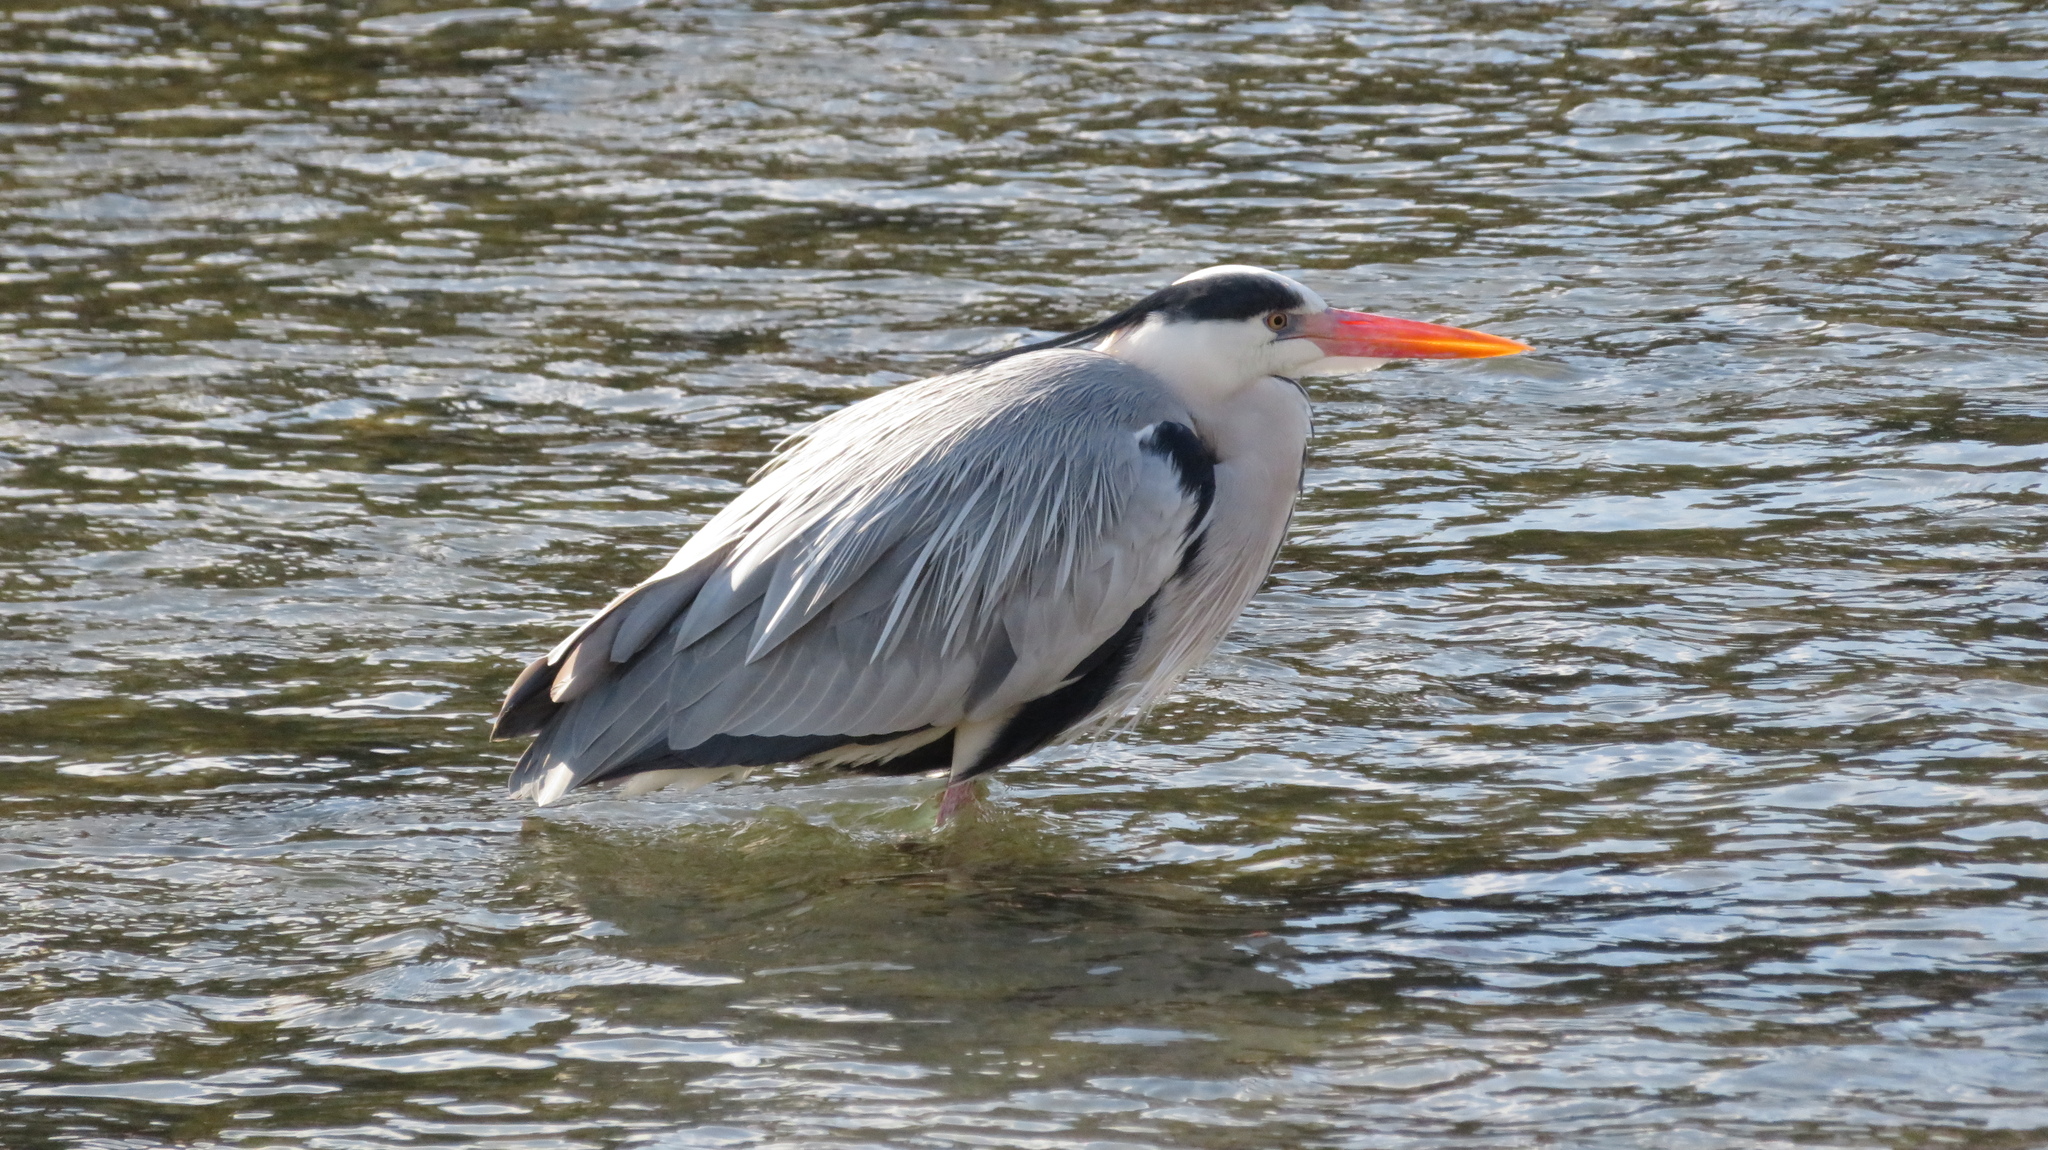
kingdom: Animalia
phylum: Chordata
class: Aves
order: Pelecaniformes
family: Ardeidae
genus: Ardea
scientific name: Ardea cinerea
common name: Grey heron
